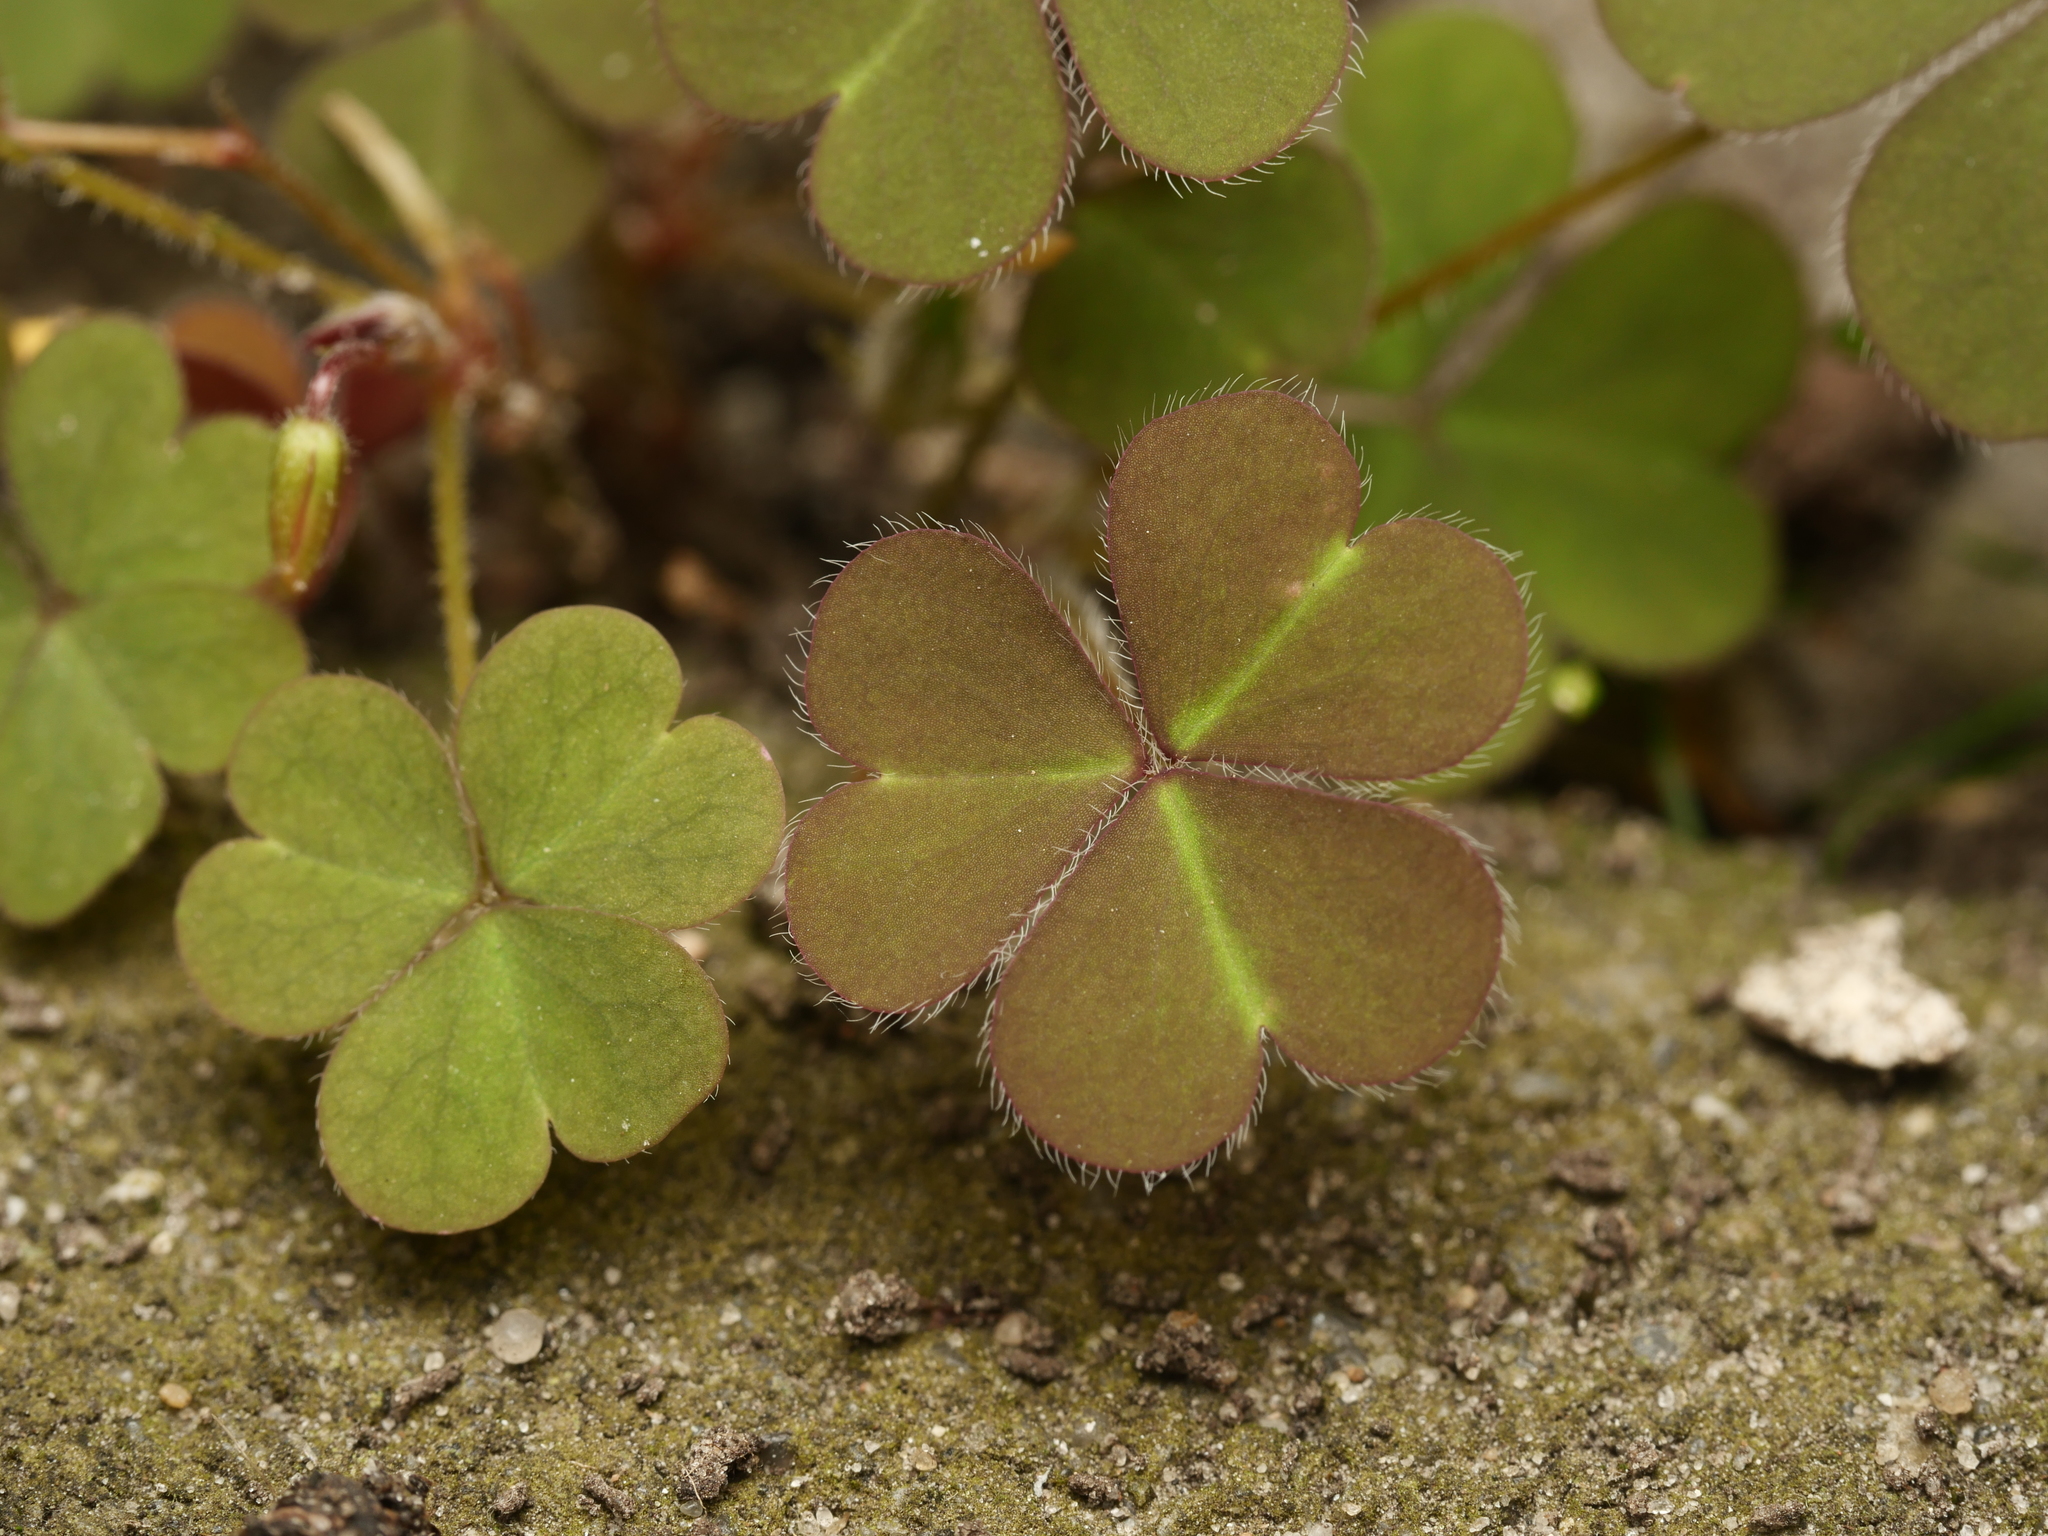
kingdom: Plantae
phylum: Tracheophyta
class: Magnoliopsida
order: Oxalidales
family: Oxalidaceae
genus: Oxalis
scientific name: Oxalis corniculata
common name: Procumbent yellow-sorrel
